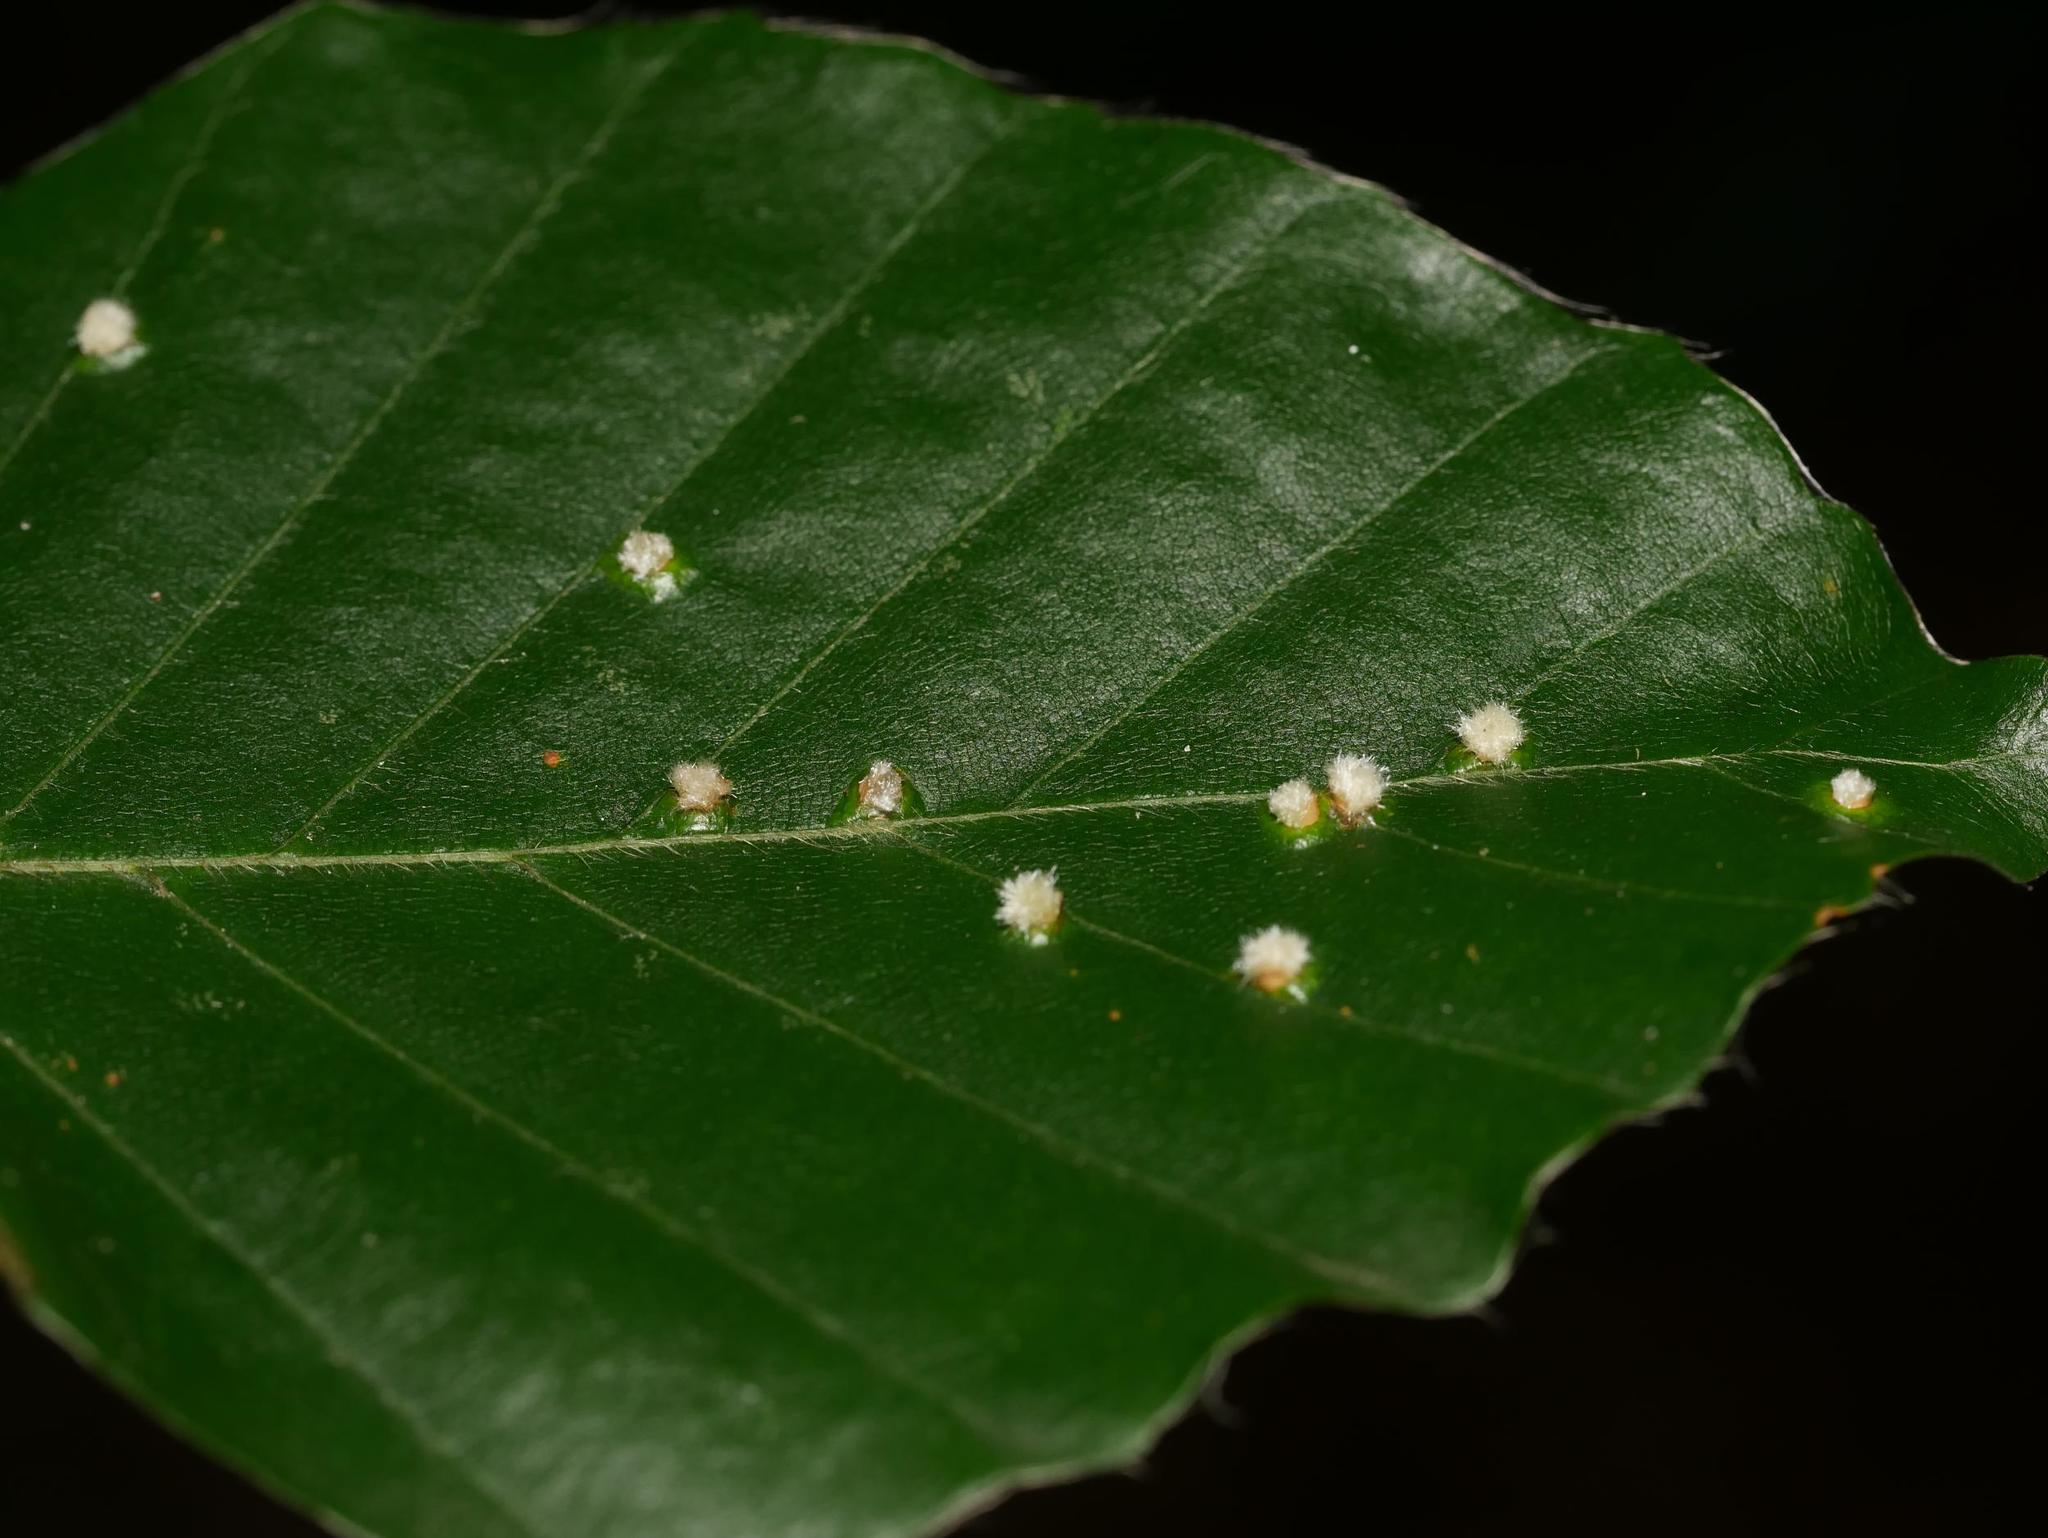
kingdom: Animalia
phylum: Arthropoda
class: Insecta
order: Diptera
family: Cecidomyiidae
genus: Hartigiola
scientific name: Hartigiola annulipes
